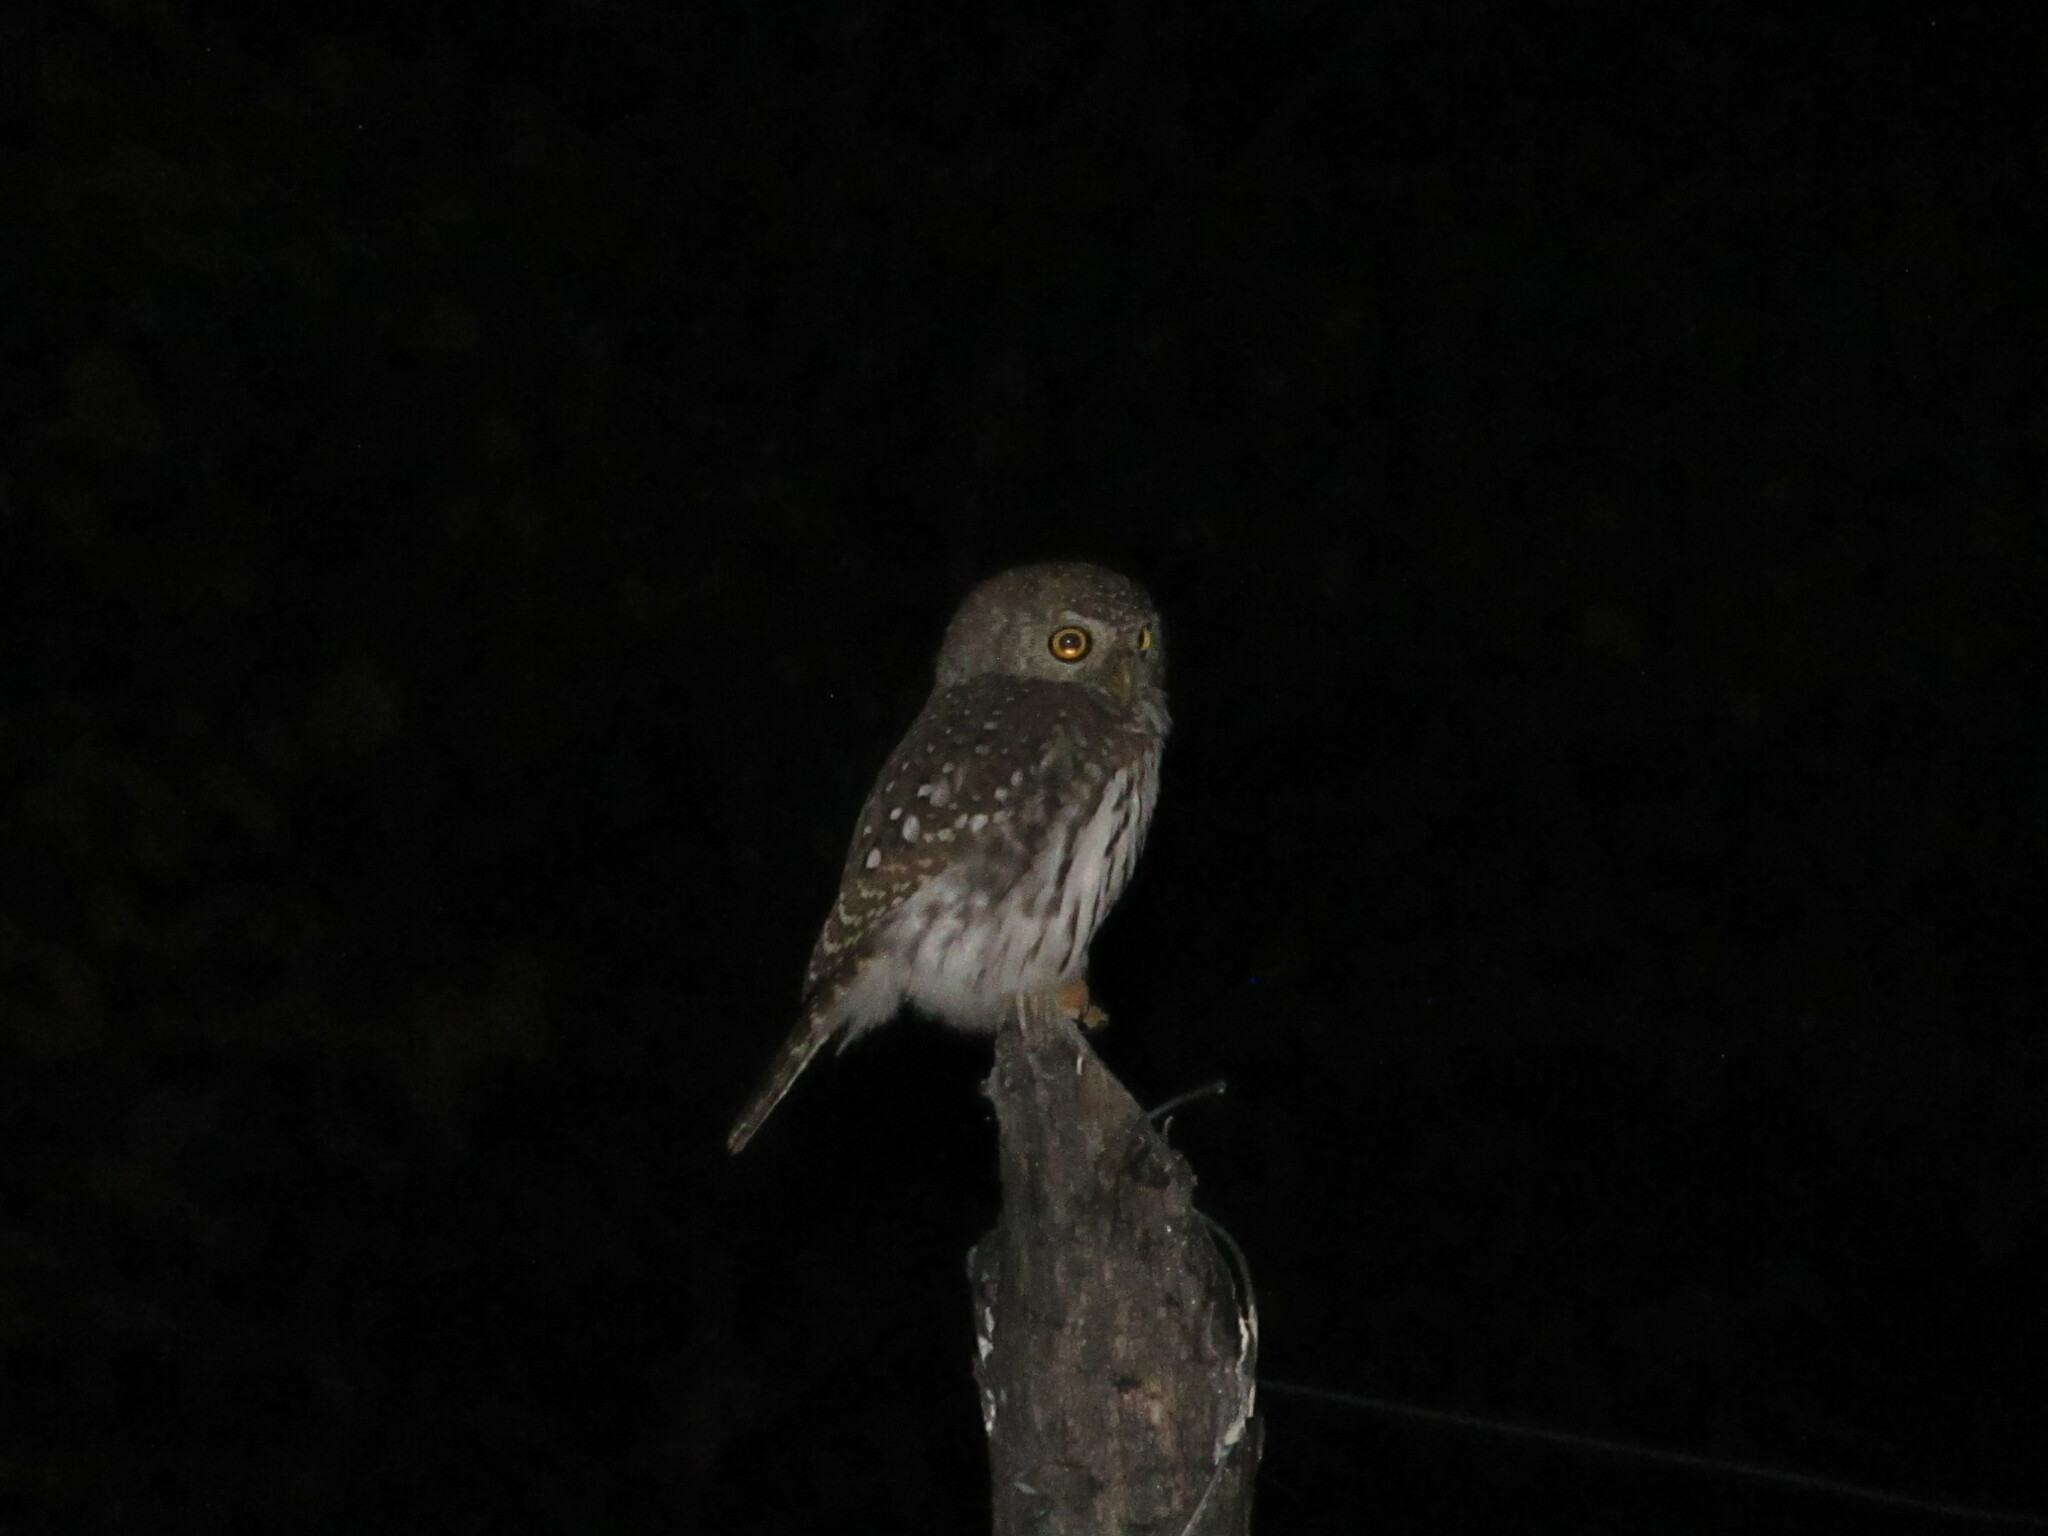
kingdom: Animalia
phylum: Chordata
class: Aves
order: Strigiformes
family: Strigidae
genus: Glaucidium
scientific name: Glaucidium perlatum
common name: Pearl-spotted owlet
